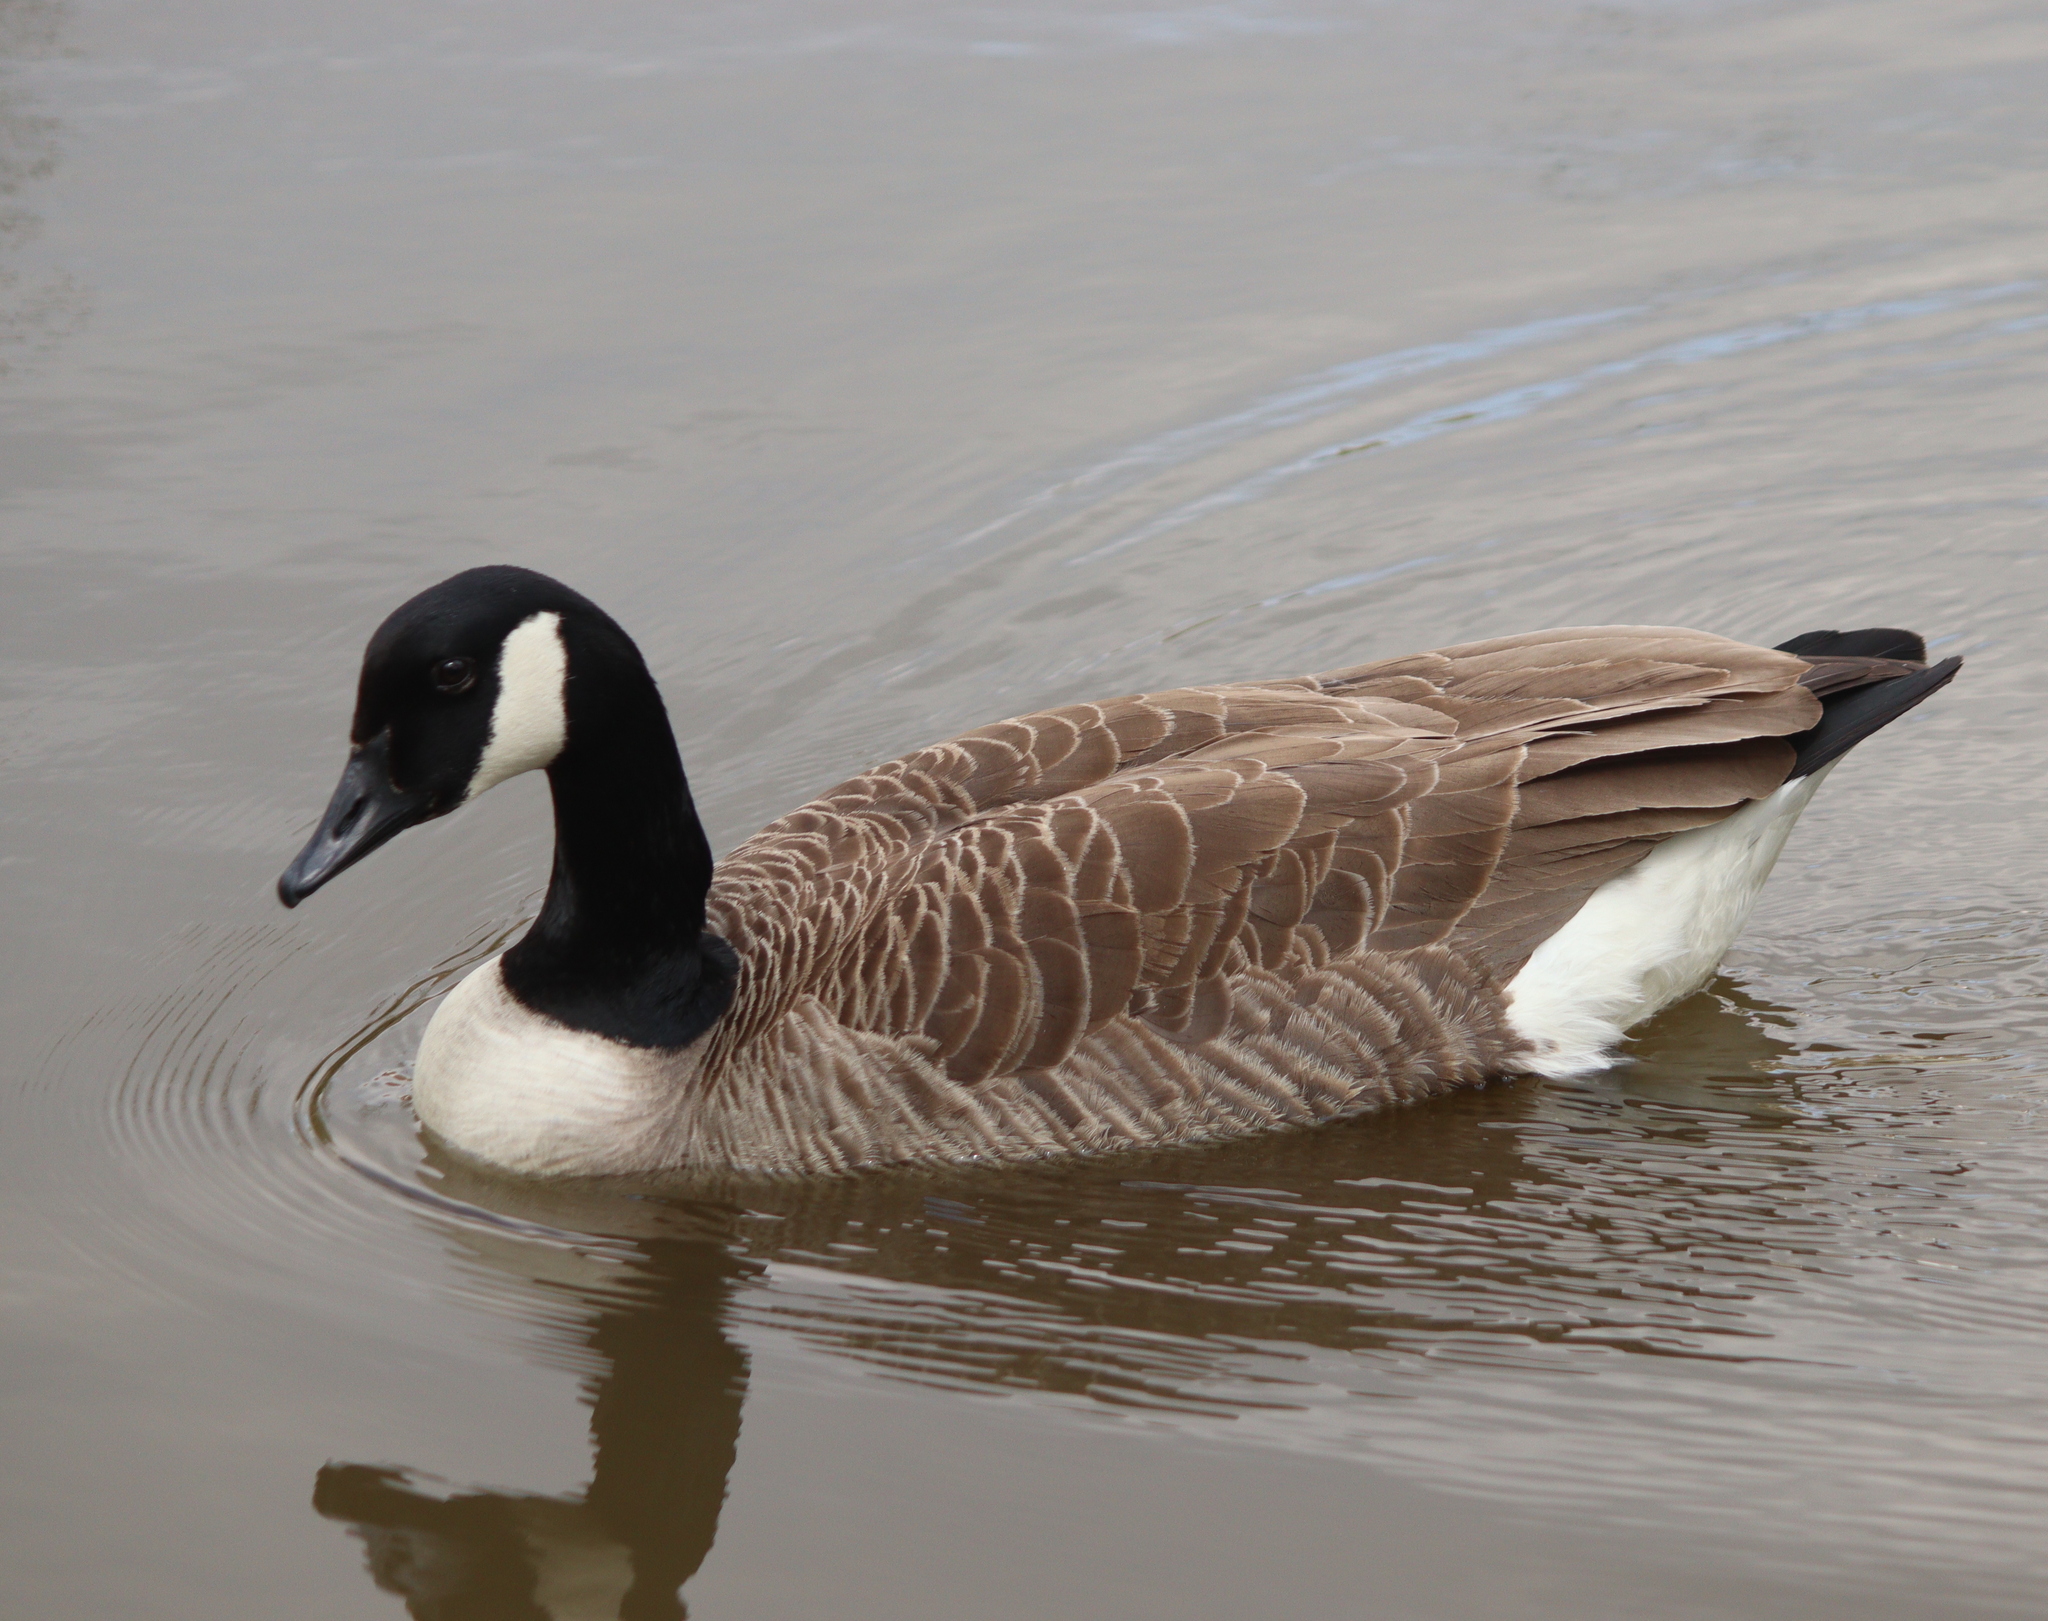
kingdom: Animalia
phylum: Chordata
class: Aves
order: Anseriformes
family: Anatidae
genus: Branta
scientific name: Branta canadensis
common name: Canada goose
